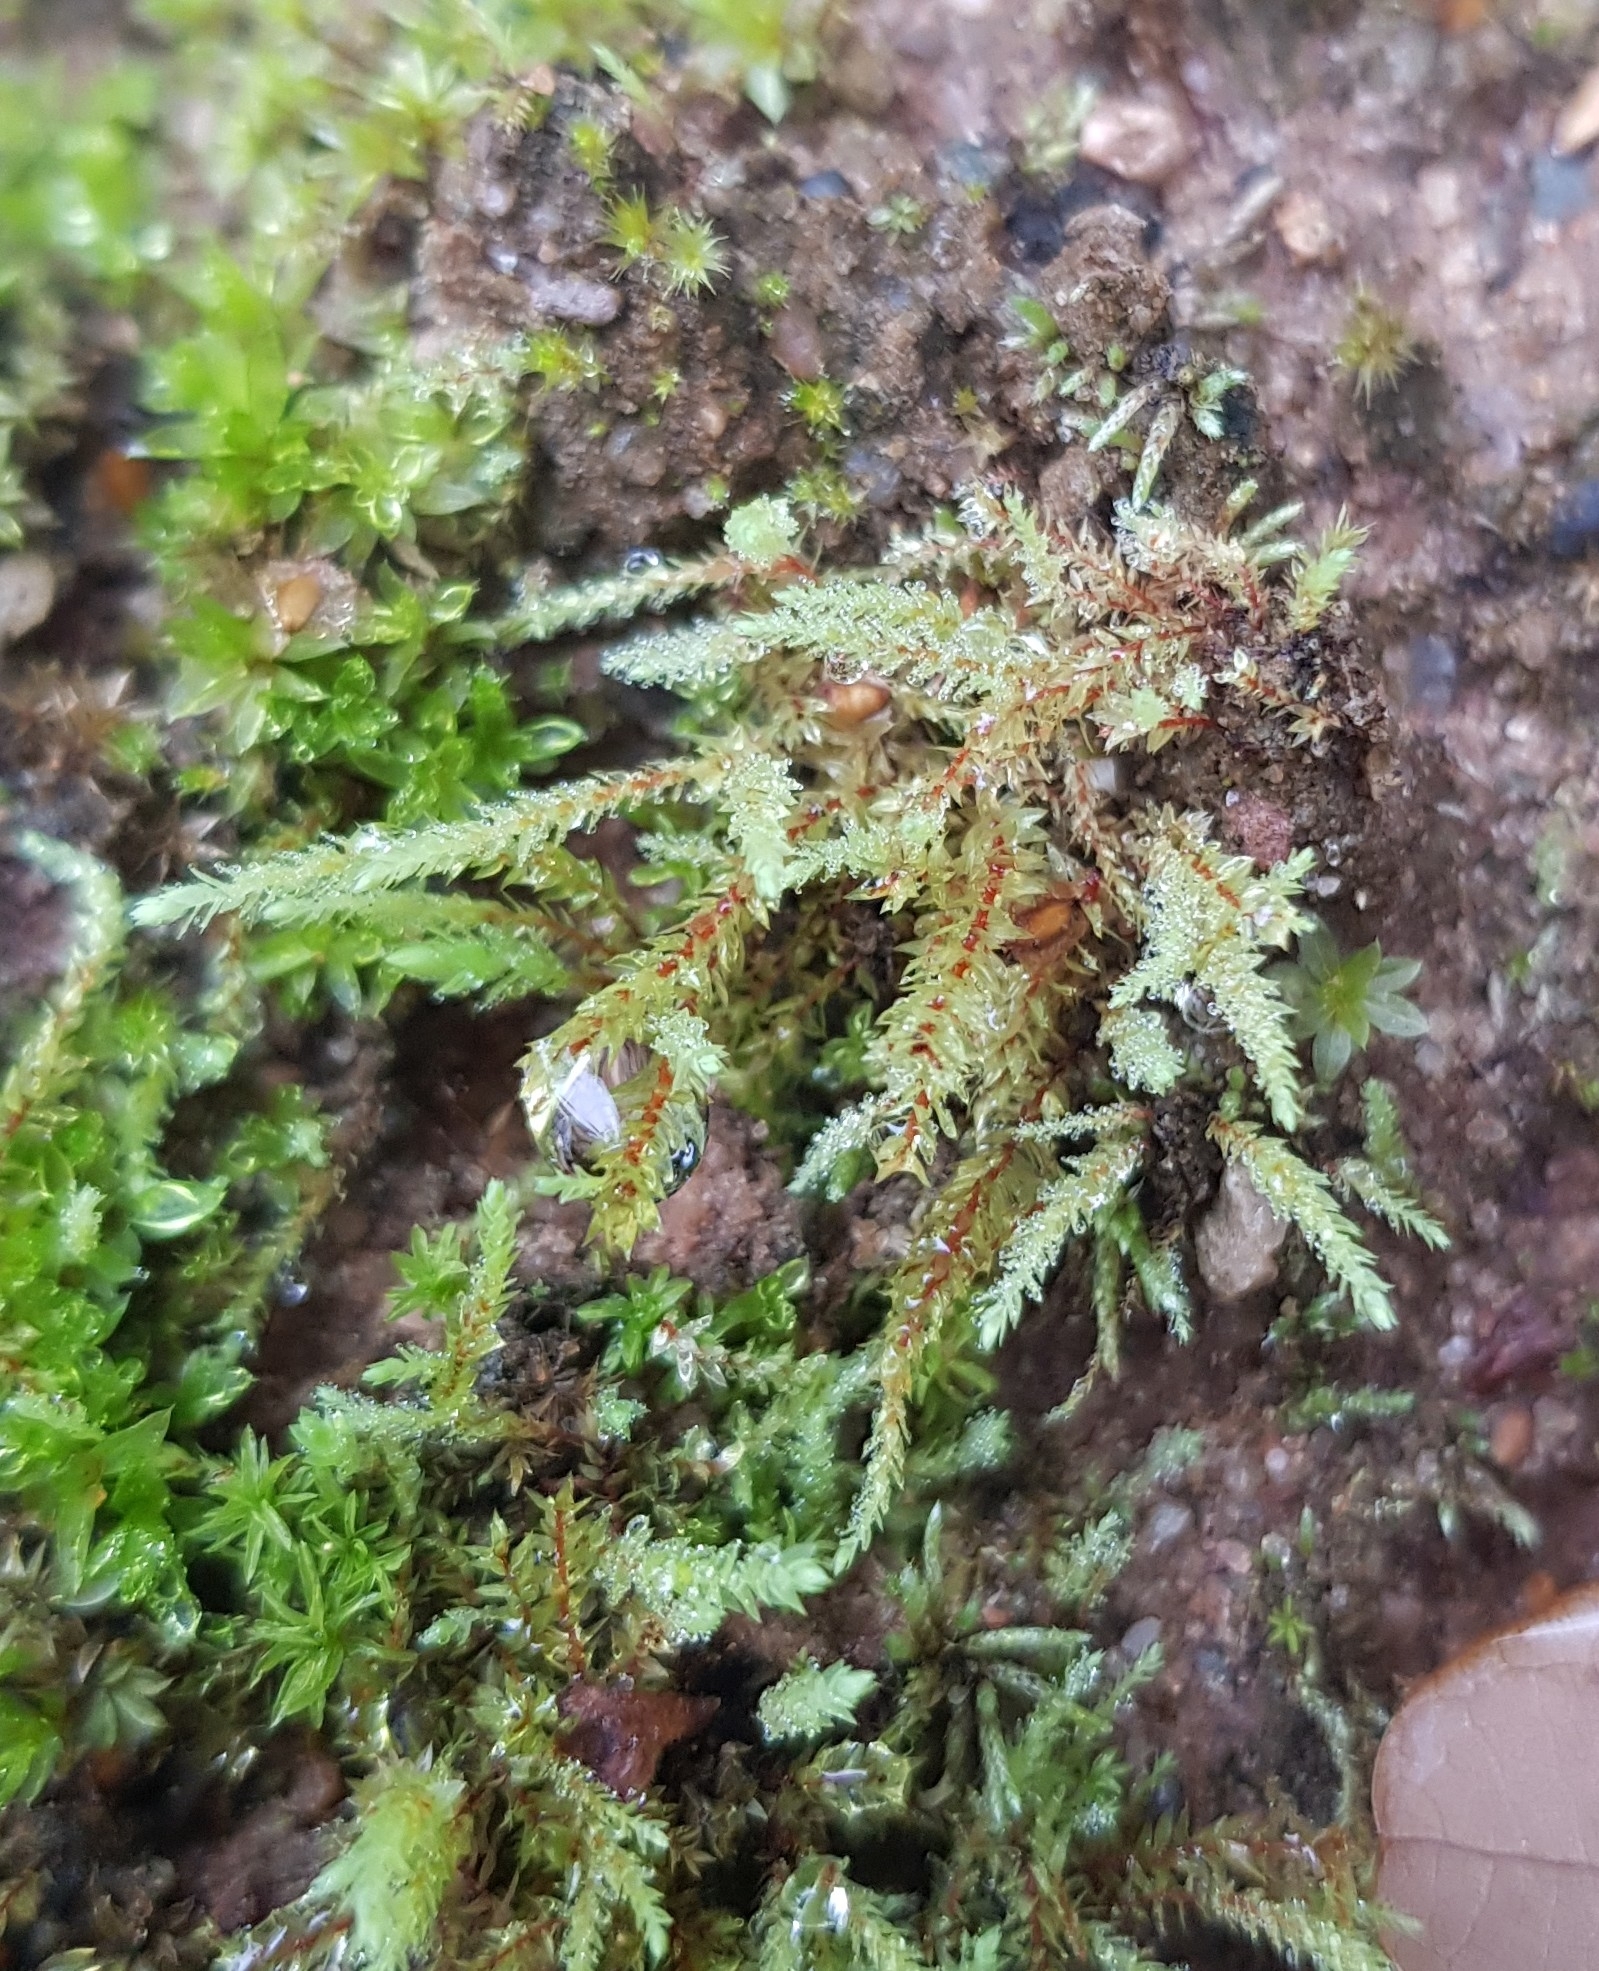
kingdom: Plantae
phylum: Bryophyta
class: Bryopsida
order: Bryales
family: Mniaceae
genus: Pohlia
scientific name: Pohlia wahlenbergii
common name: Wahlenberg's nodding moss
